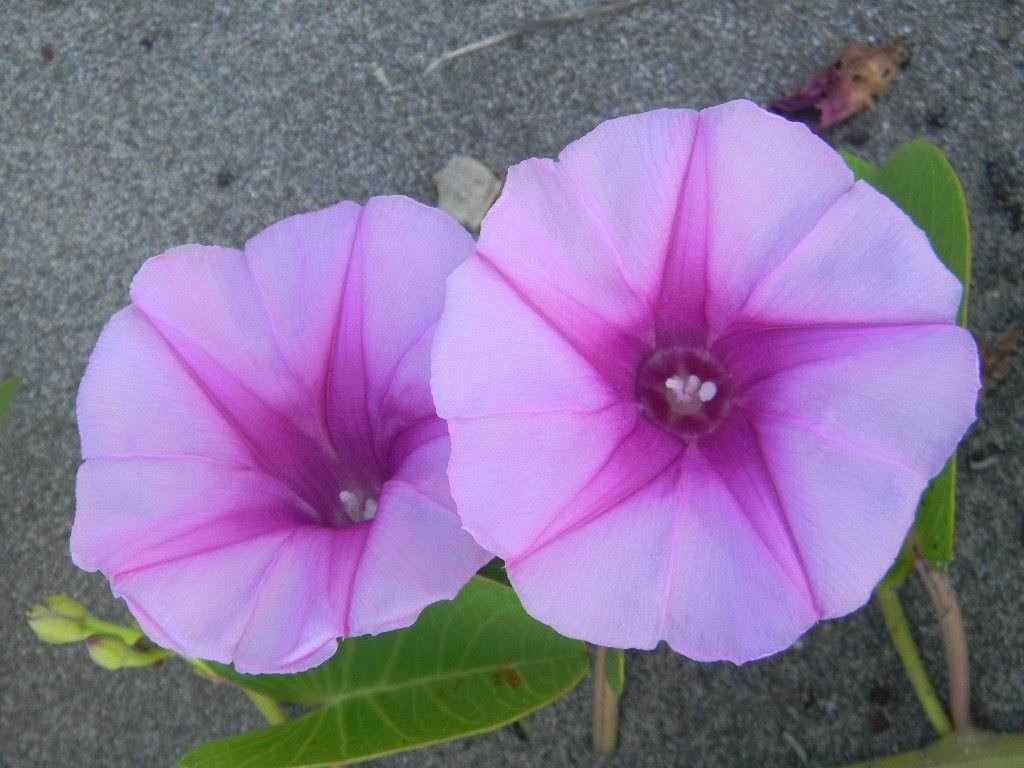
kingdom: Plantae
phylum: Tracheophyta
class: Magnoliopsida
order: Solanales
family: Convolvulaceae
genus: Ipomoea
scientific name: Ipomoea pes-caprae
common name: Beach morning glory
